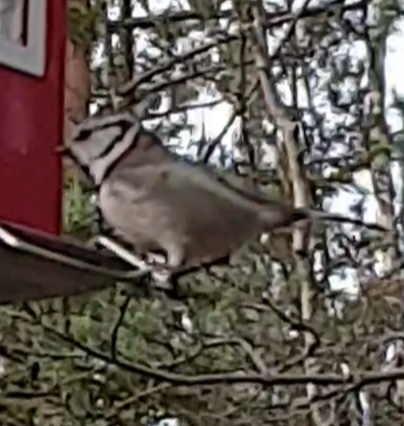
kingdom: Animalia
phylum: Chordata
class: Aves
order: Passeriformes
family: Paridae
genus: Lophophanes
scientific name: Lophophanes cristatus
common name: European crested tit
